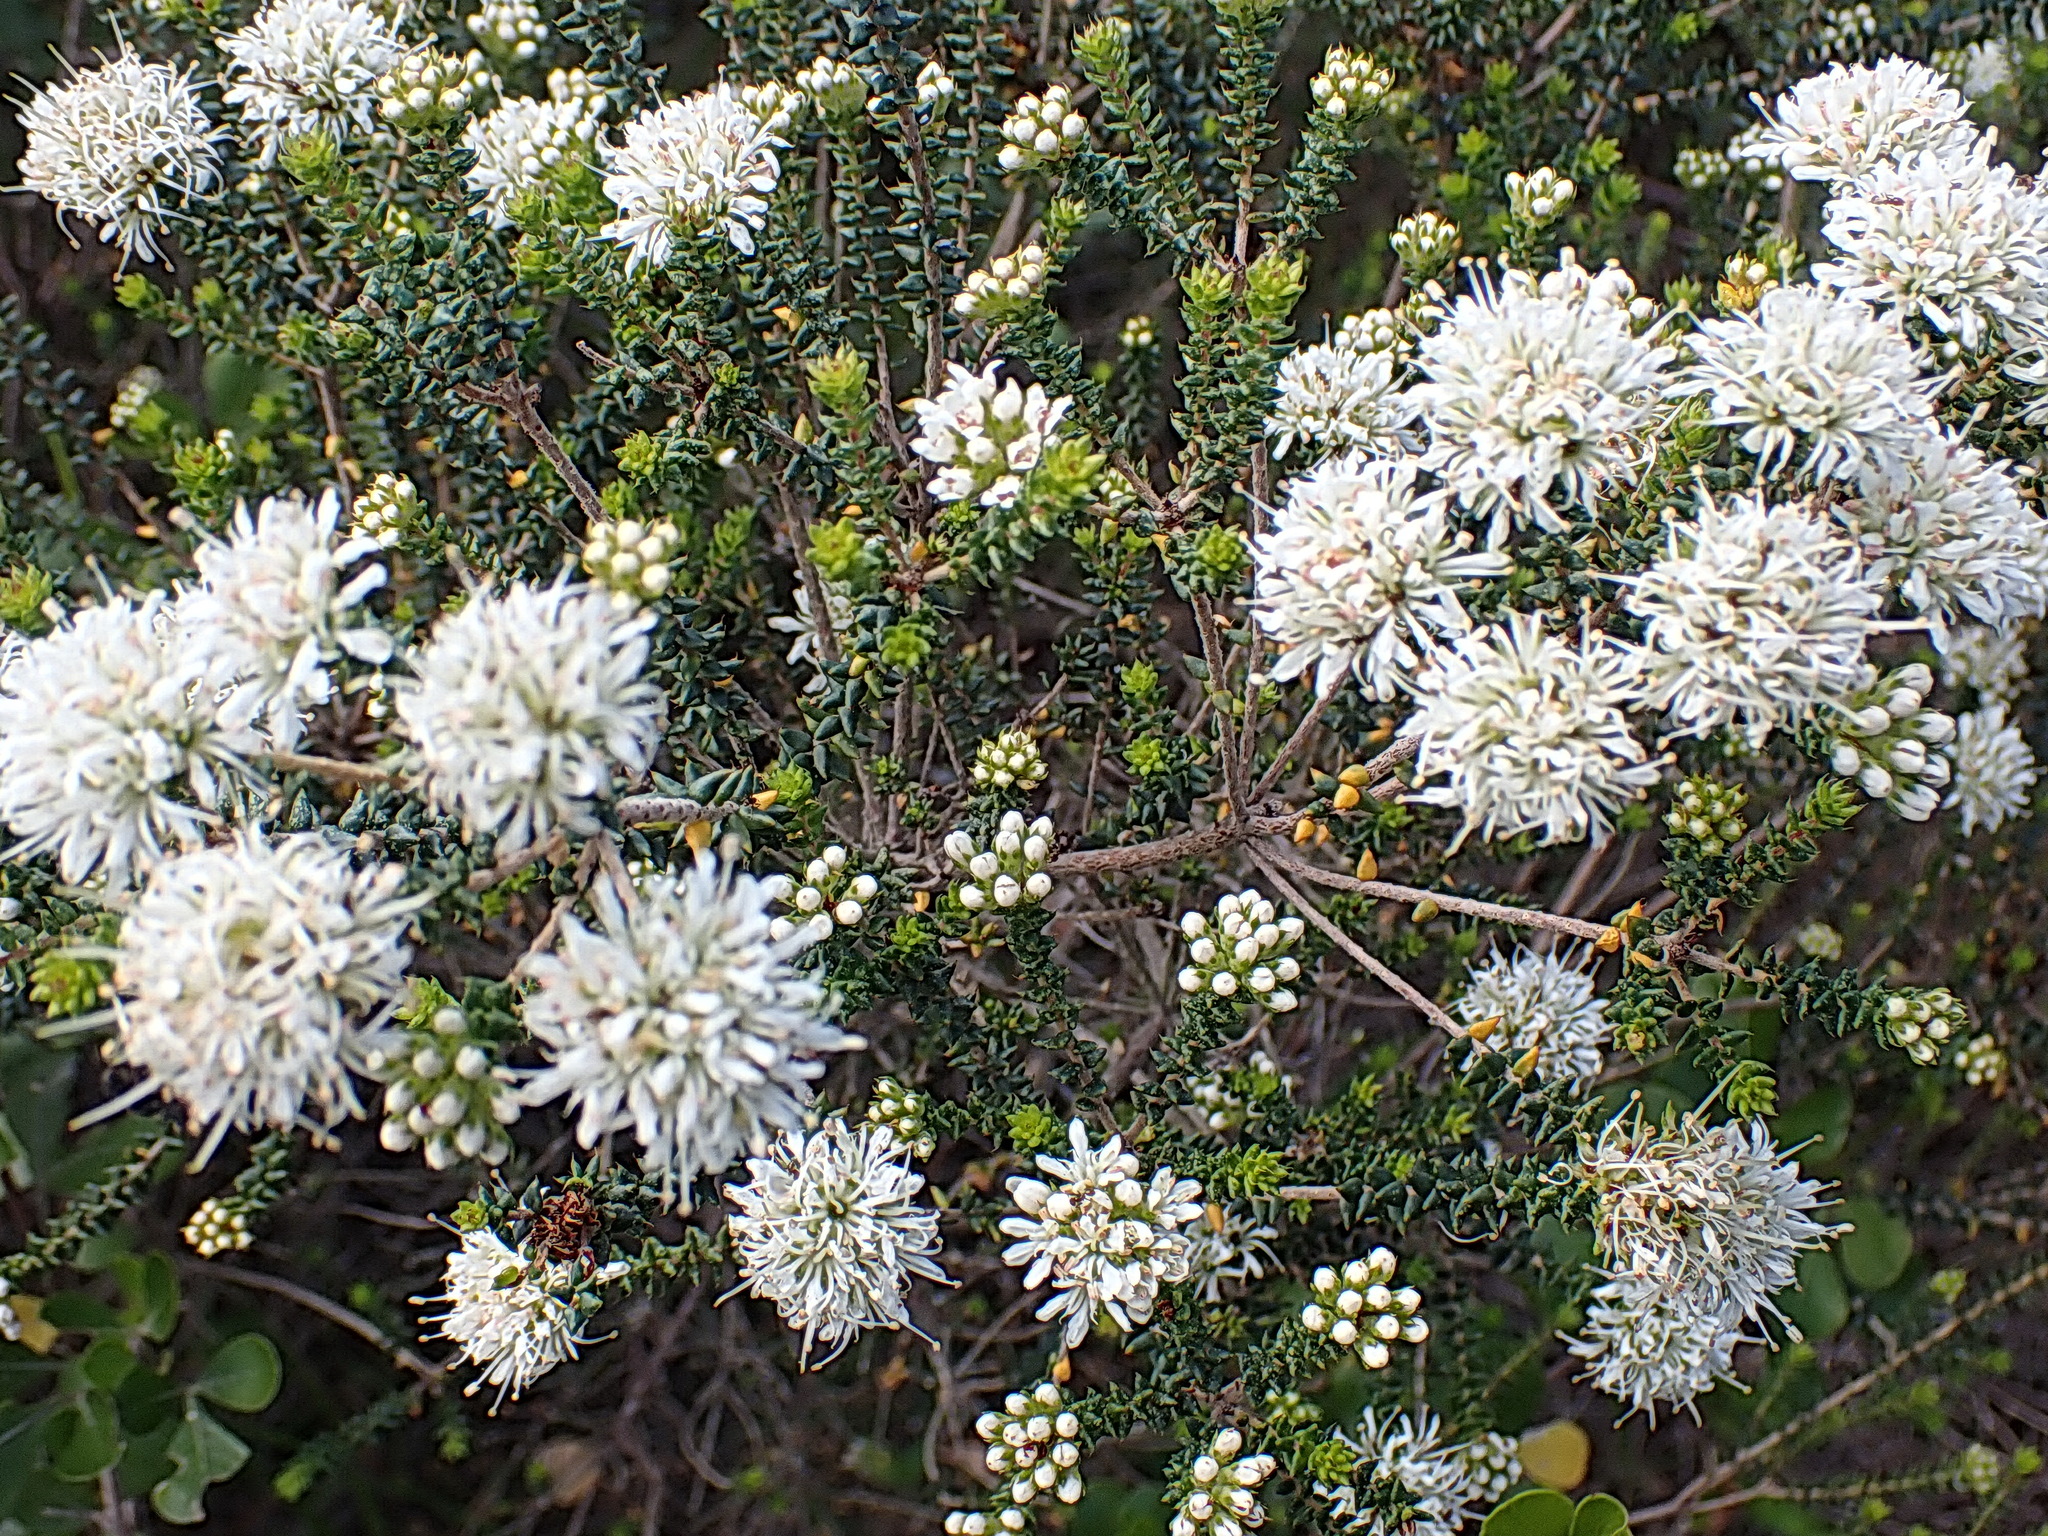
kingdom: Plantae
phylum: Tracheophyta
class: Magnoliopsida
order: Sapindales
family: Rutaceae
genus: Agathosma
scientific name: Agathosma apiculata
